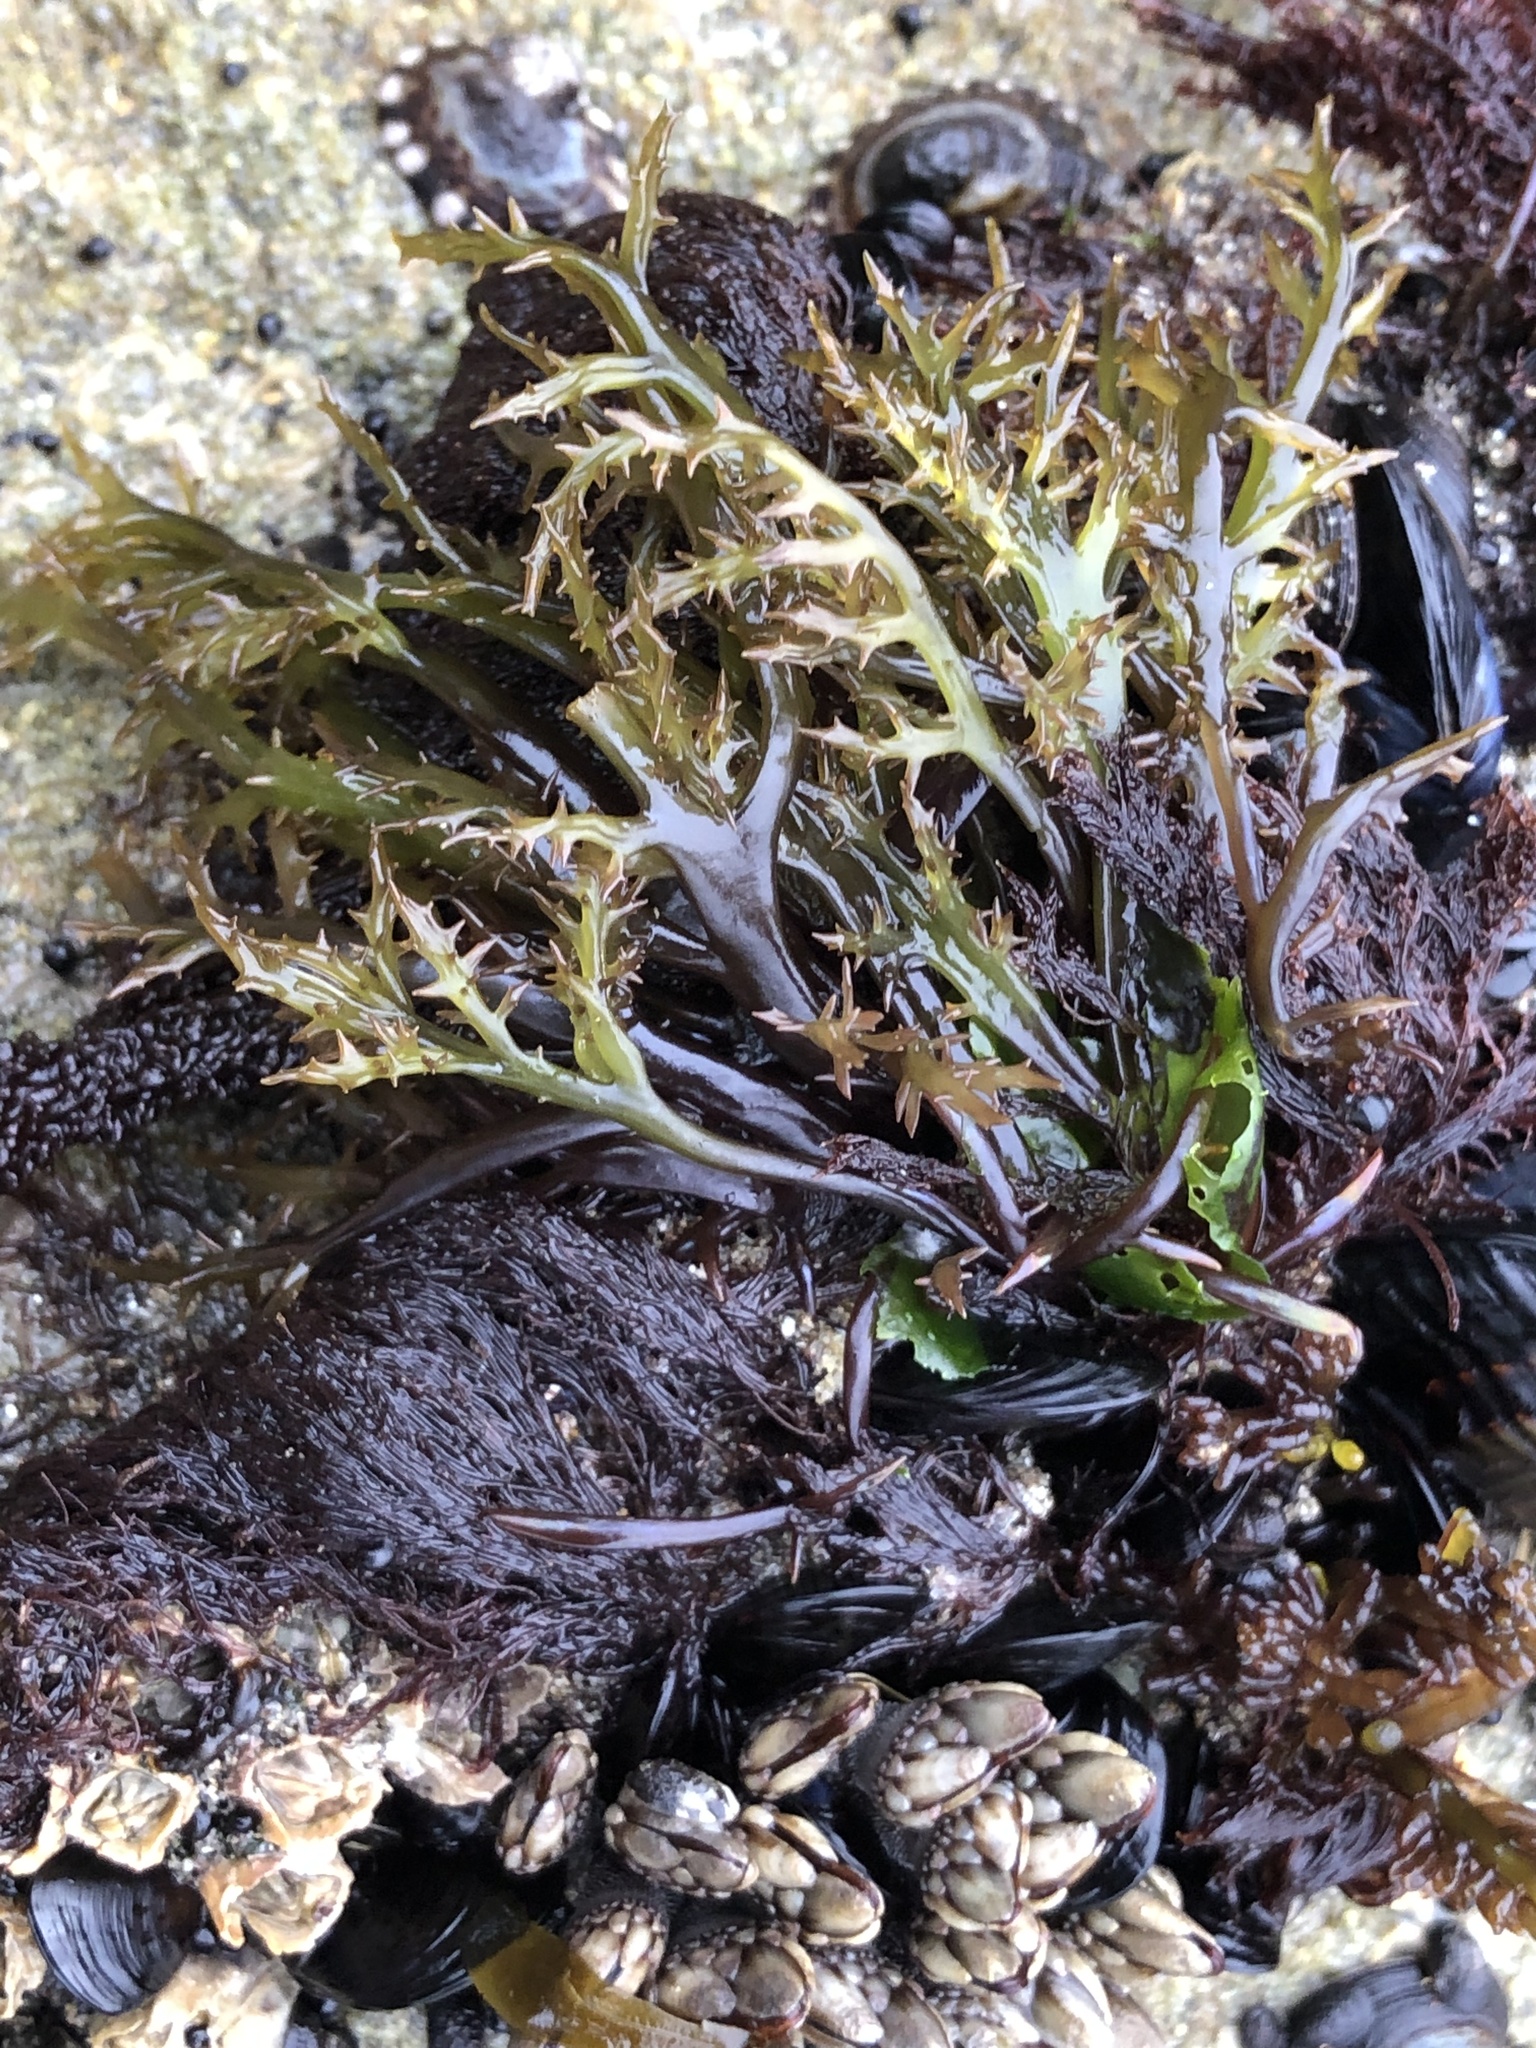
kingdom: Plantae
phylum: Rhodophyta
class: Florideophyceae
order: Gigartinales
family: Gigartinaceae
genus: Chondracanthus
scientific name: Chondracanthus canaliculatus
